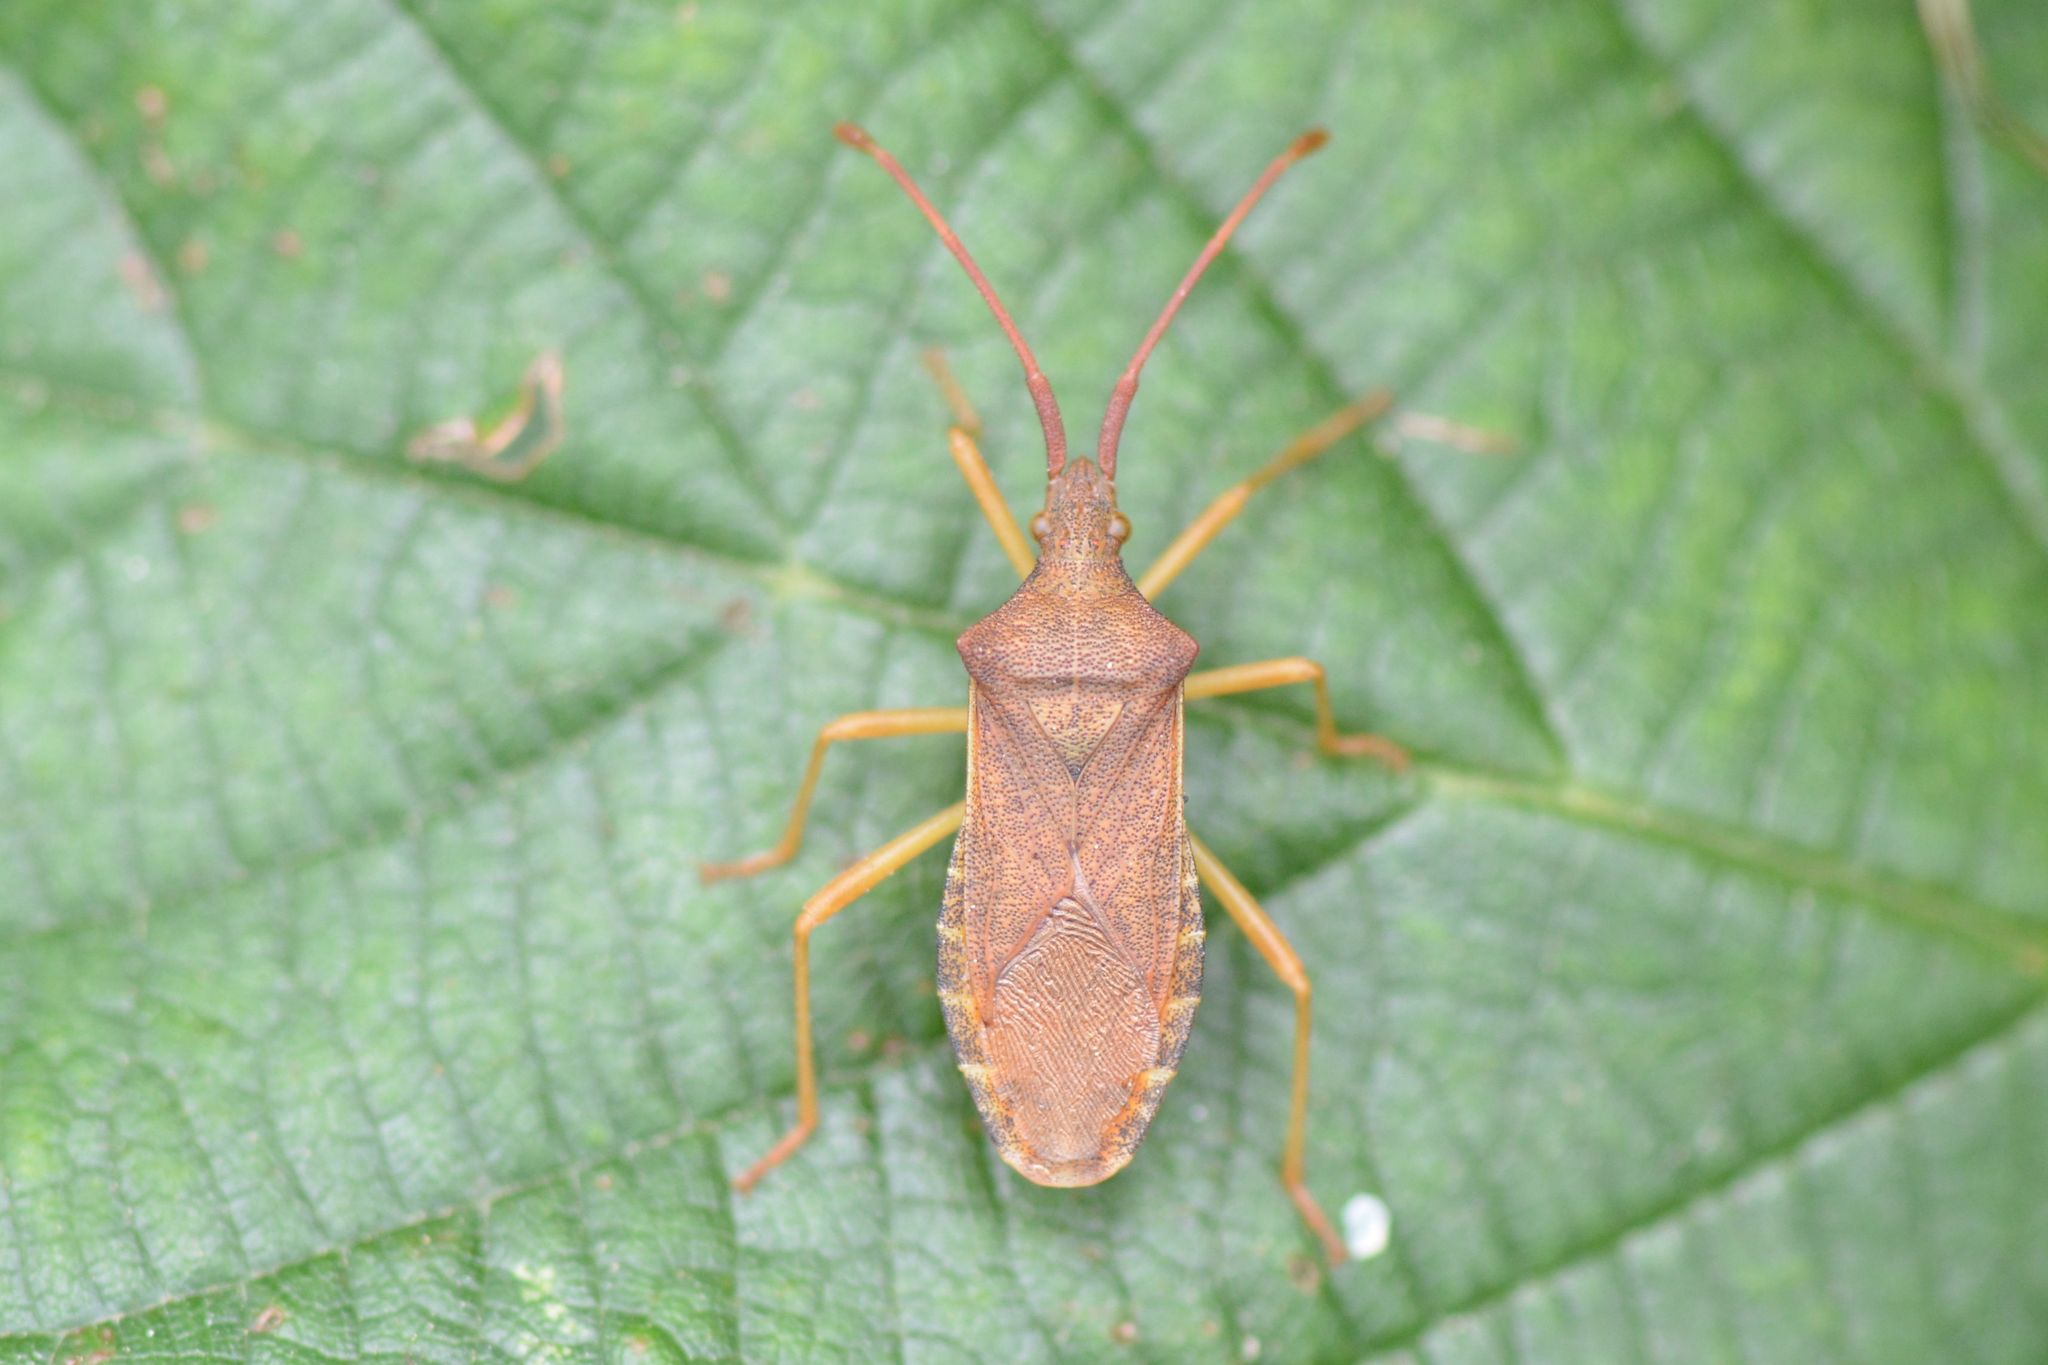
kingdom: Animalia
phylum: Arthropoda
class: Insecta
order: Hemiptera
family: Coreidae
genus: Gonocerus
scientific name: Gonocerus acuteangulatus
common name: Box bug
